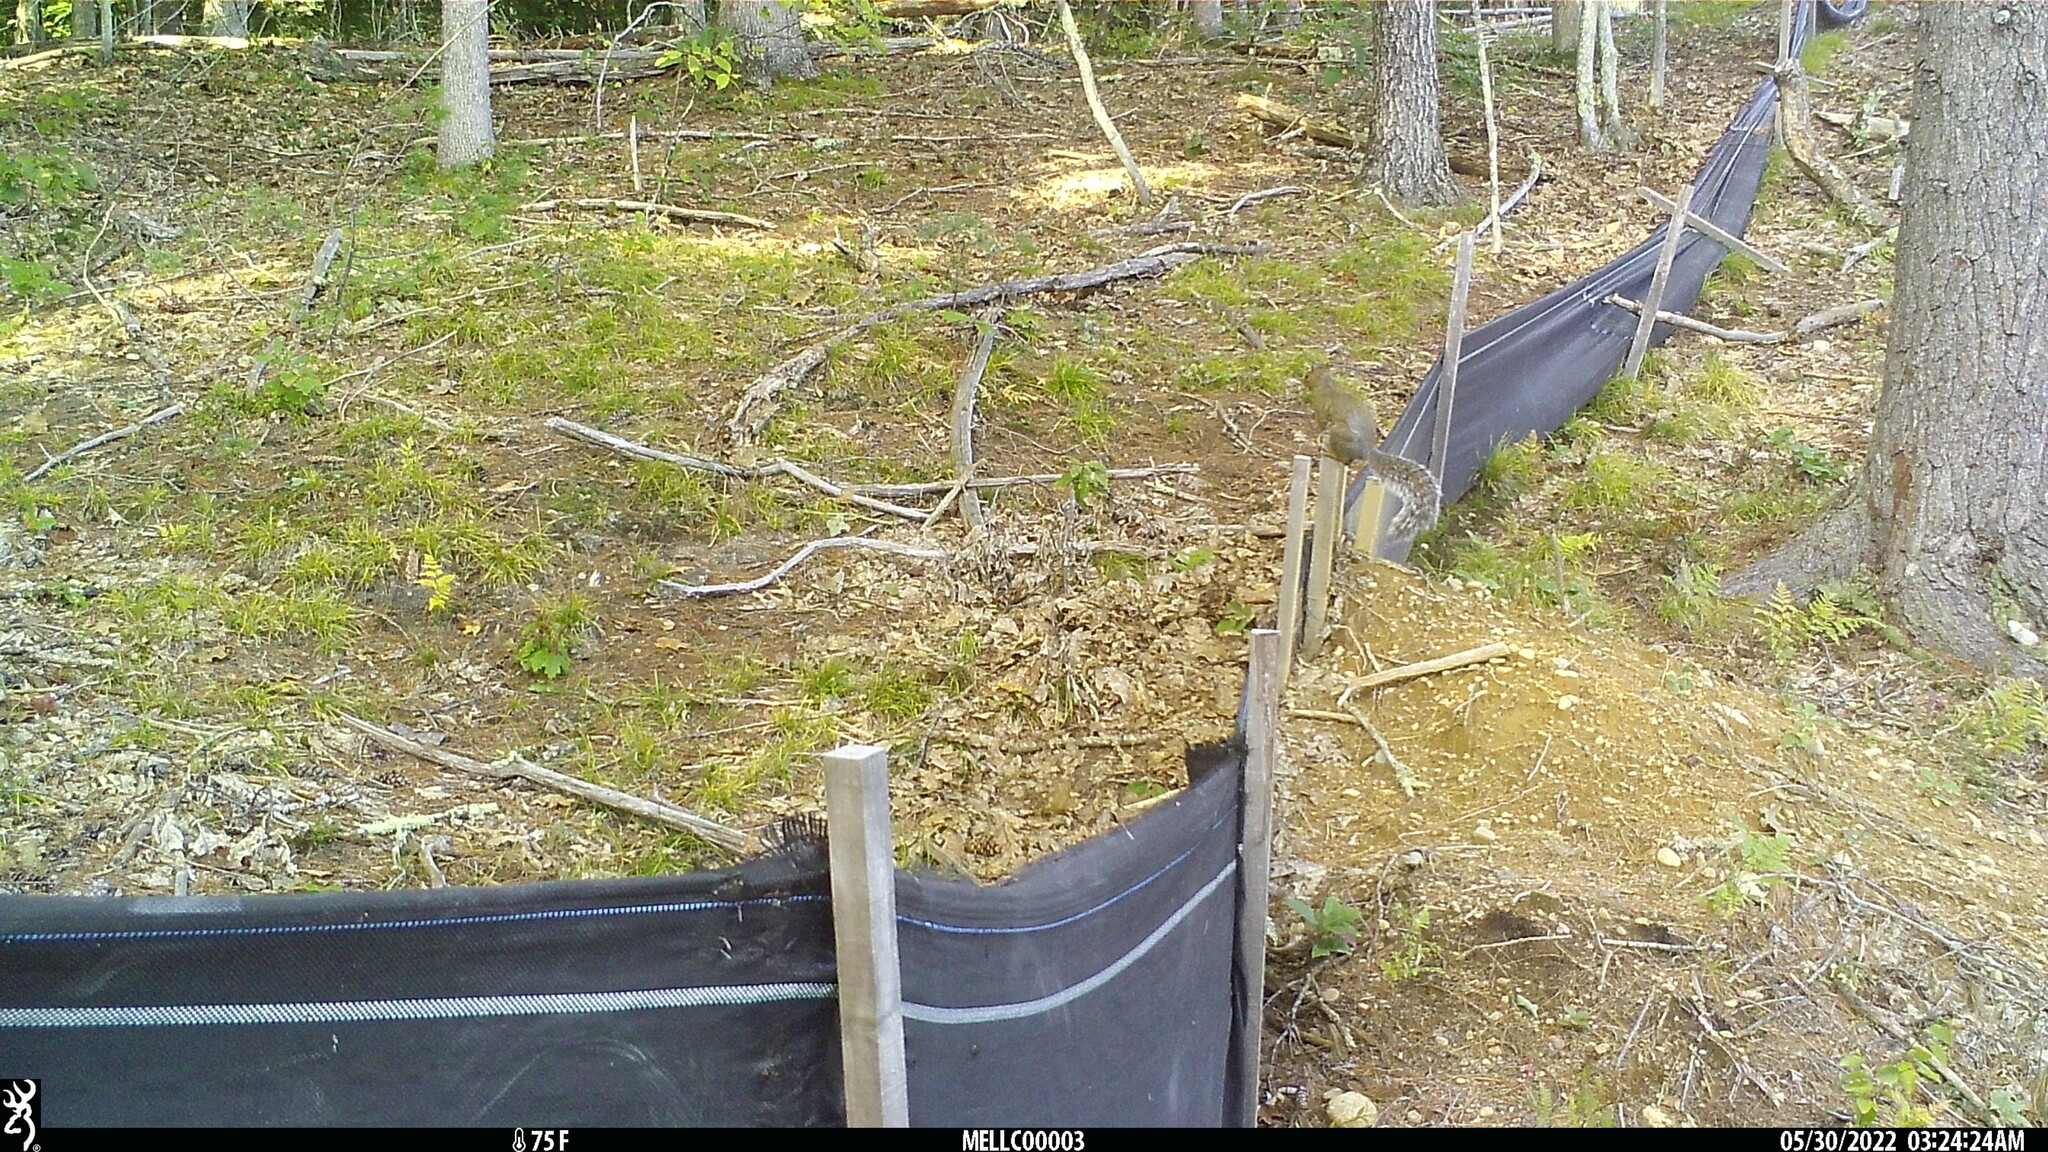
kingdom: Animalia
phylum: Chordata
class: Mammalia
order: Rodentia
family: Sciuridae
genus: Sciurus
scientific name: Sciurus carolinensis
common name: Eastern gray squirrel
